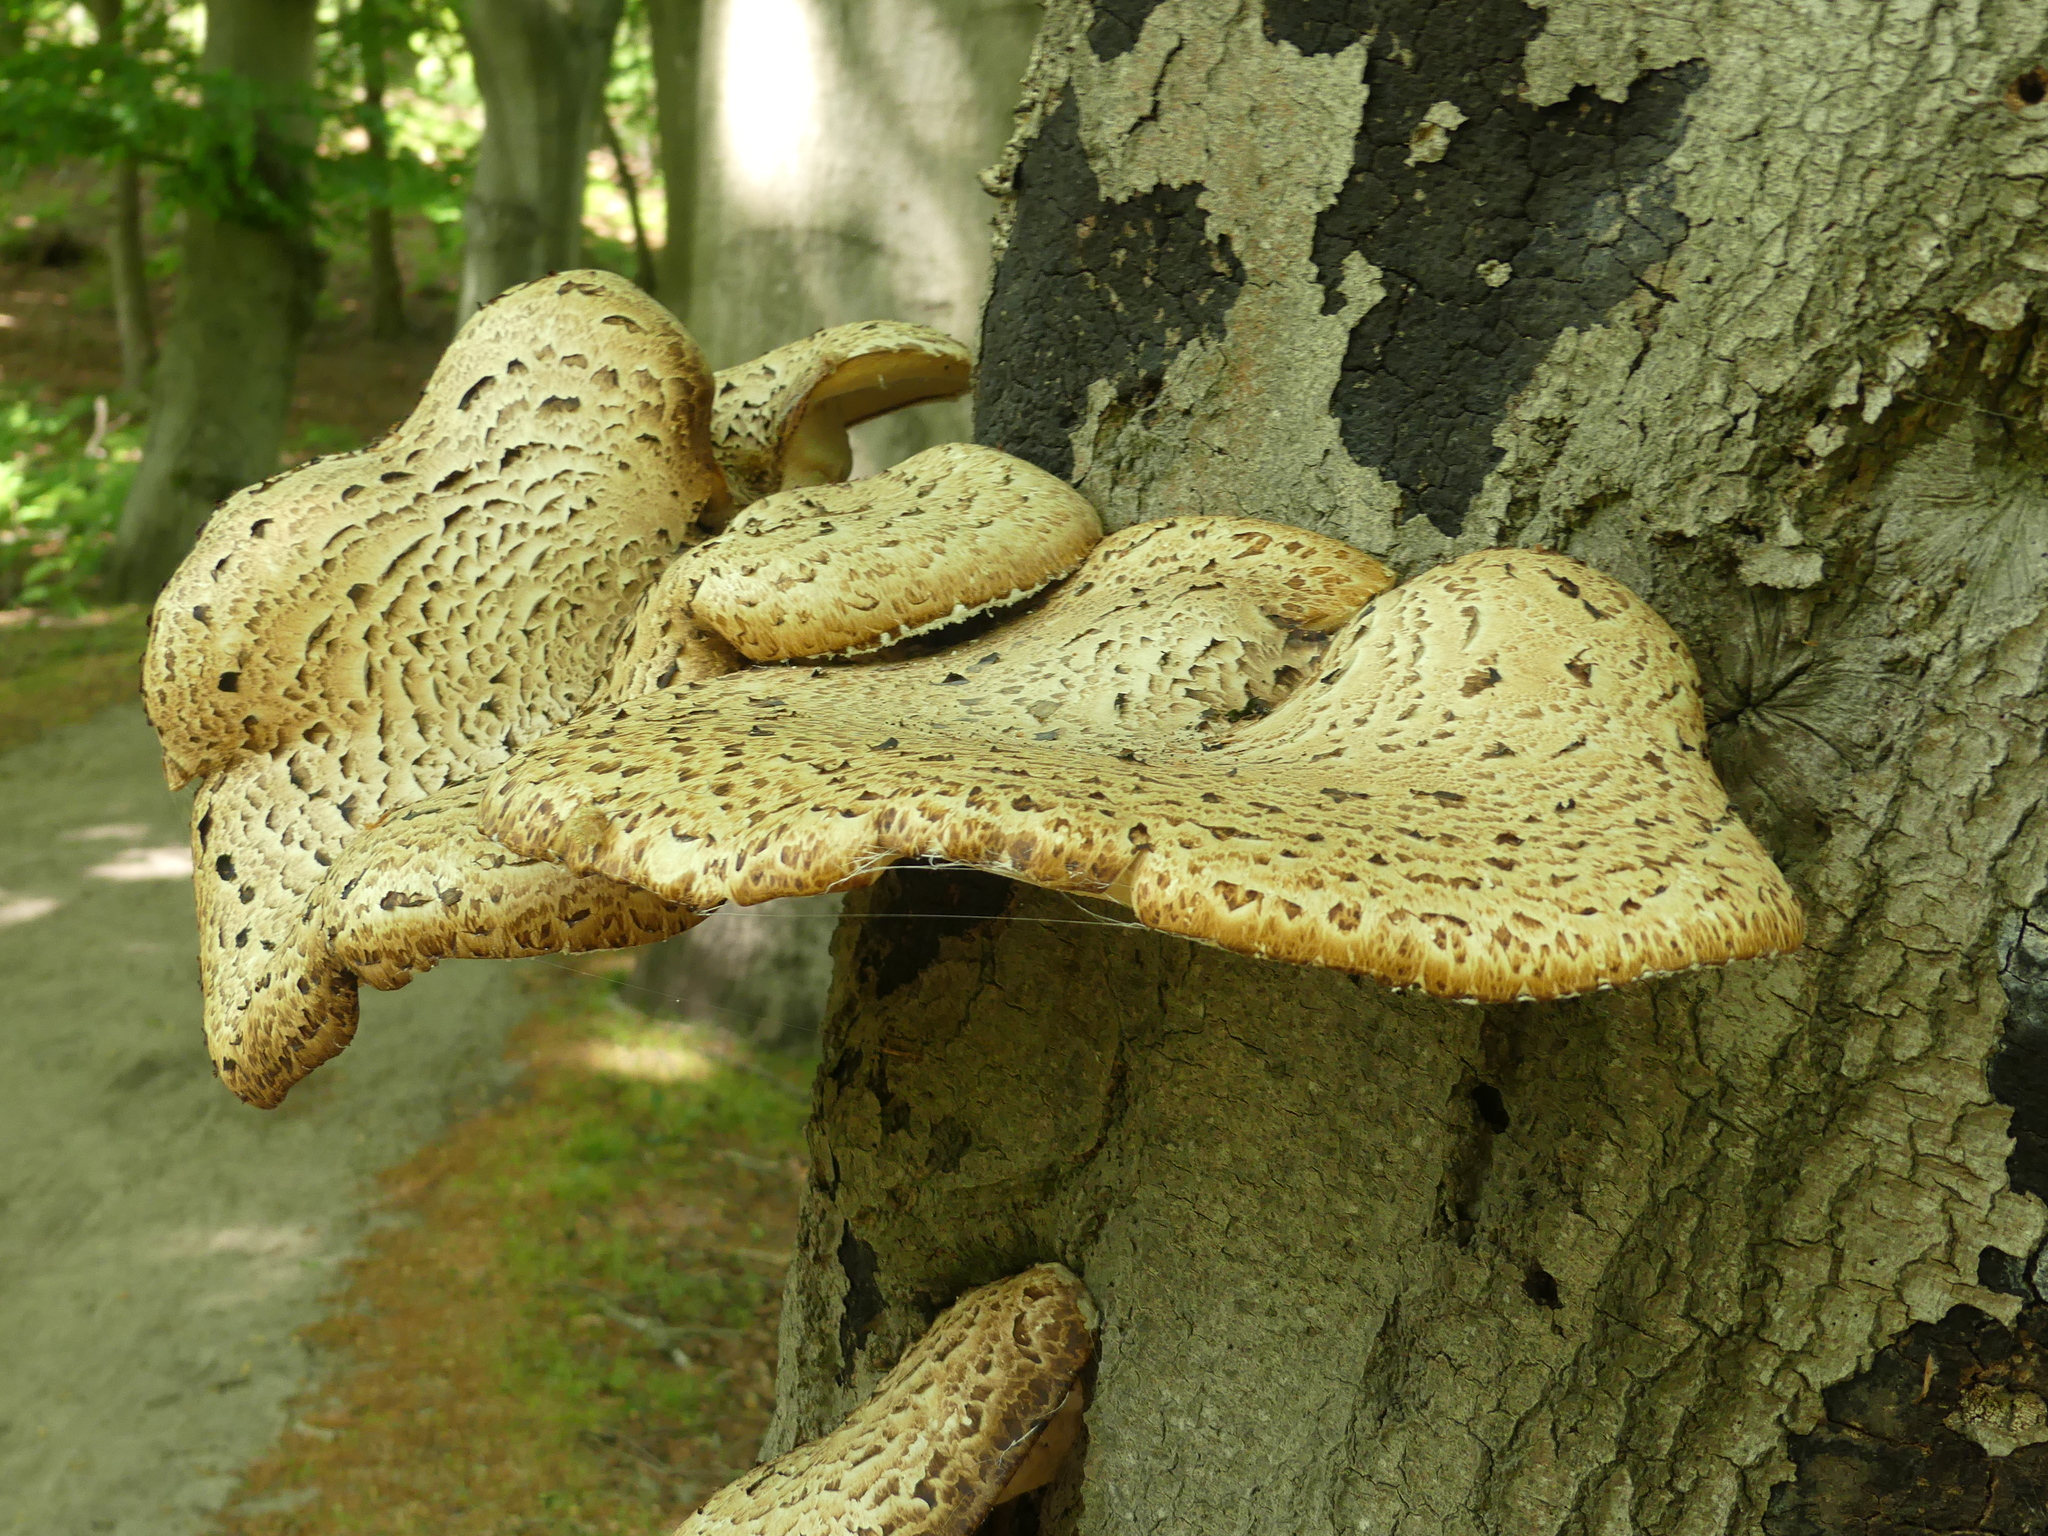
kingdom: Fungi
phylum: Basidiomycota
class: Agaricomycetes
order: Polyporales
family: Polyporaceae
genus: Cerioporus
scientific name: Cerioporus squamosus
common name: Dryad's saddle
